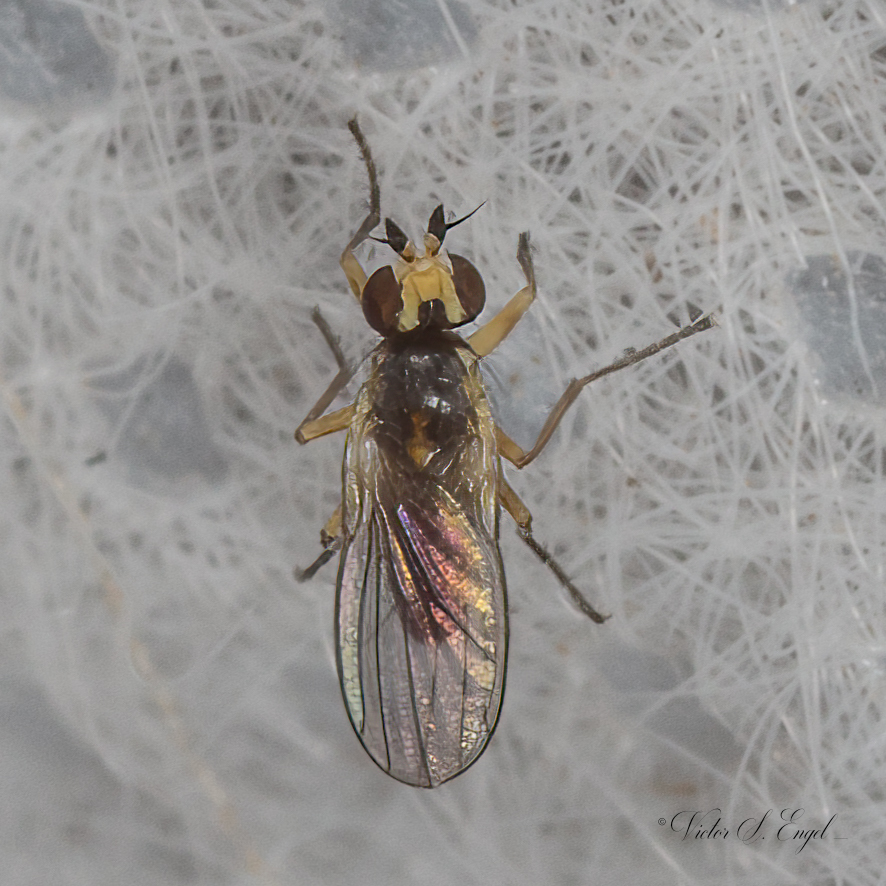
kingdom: Animalia
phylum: Arthropoda
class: Insecta
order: Diptera
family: Agromyzidae
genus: Cerodontha
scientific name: Cerodontha dorsalis
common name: Grass sheathminer fly
